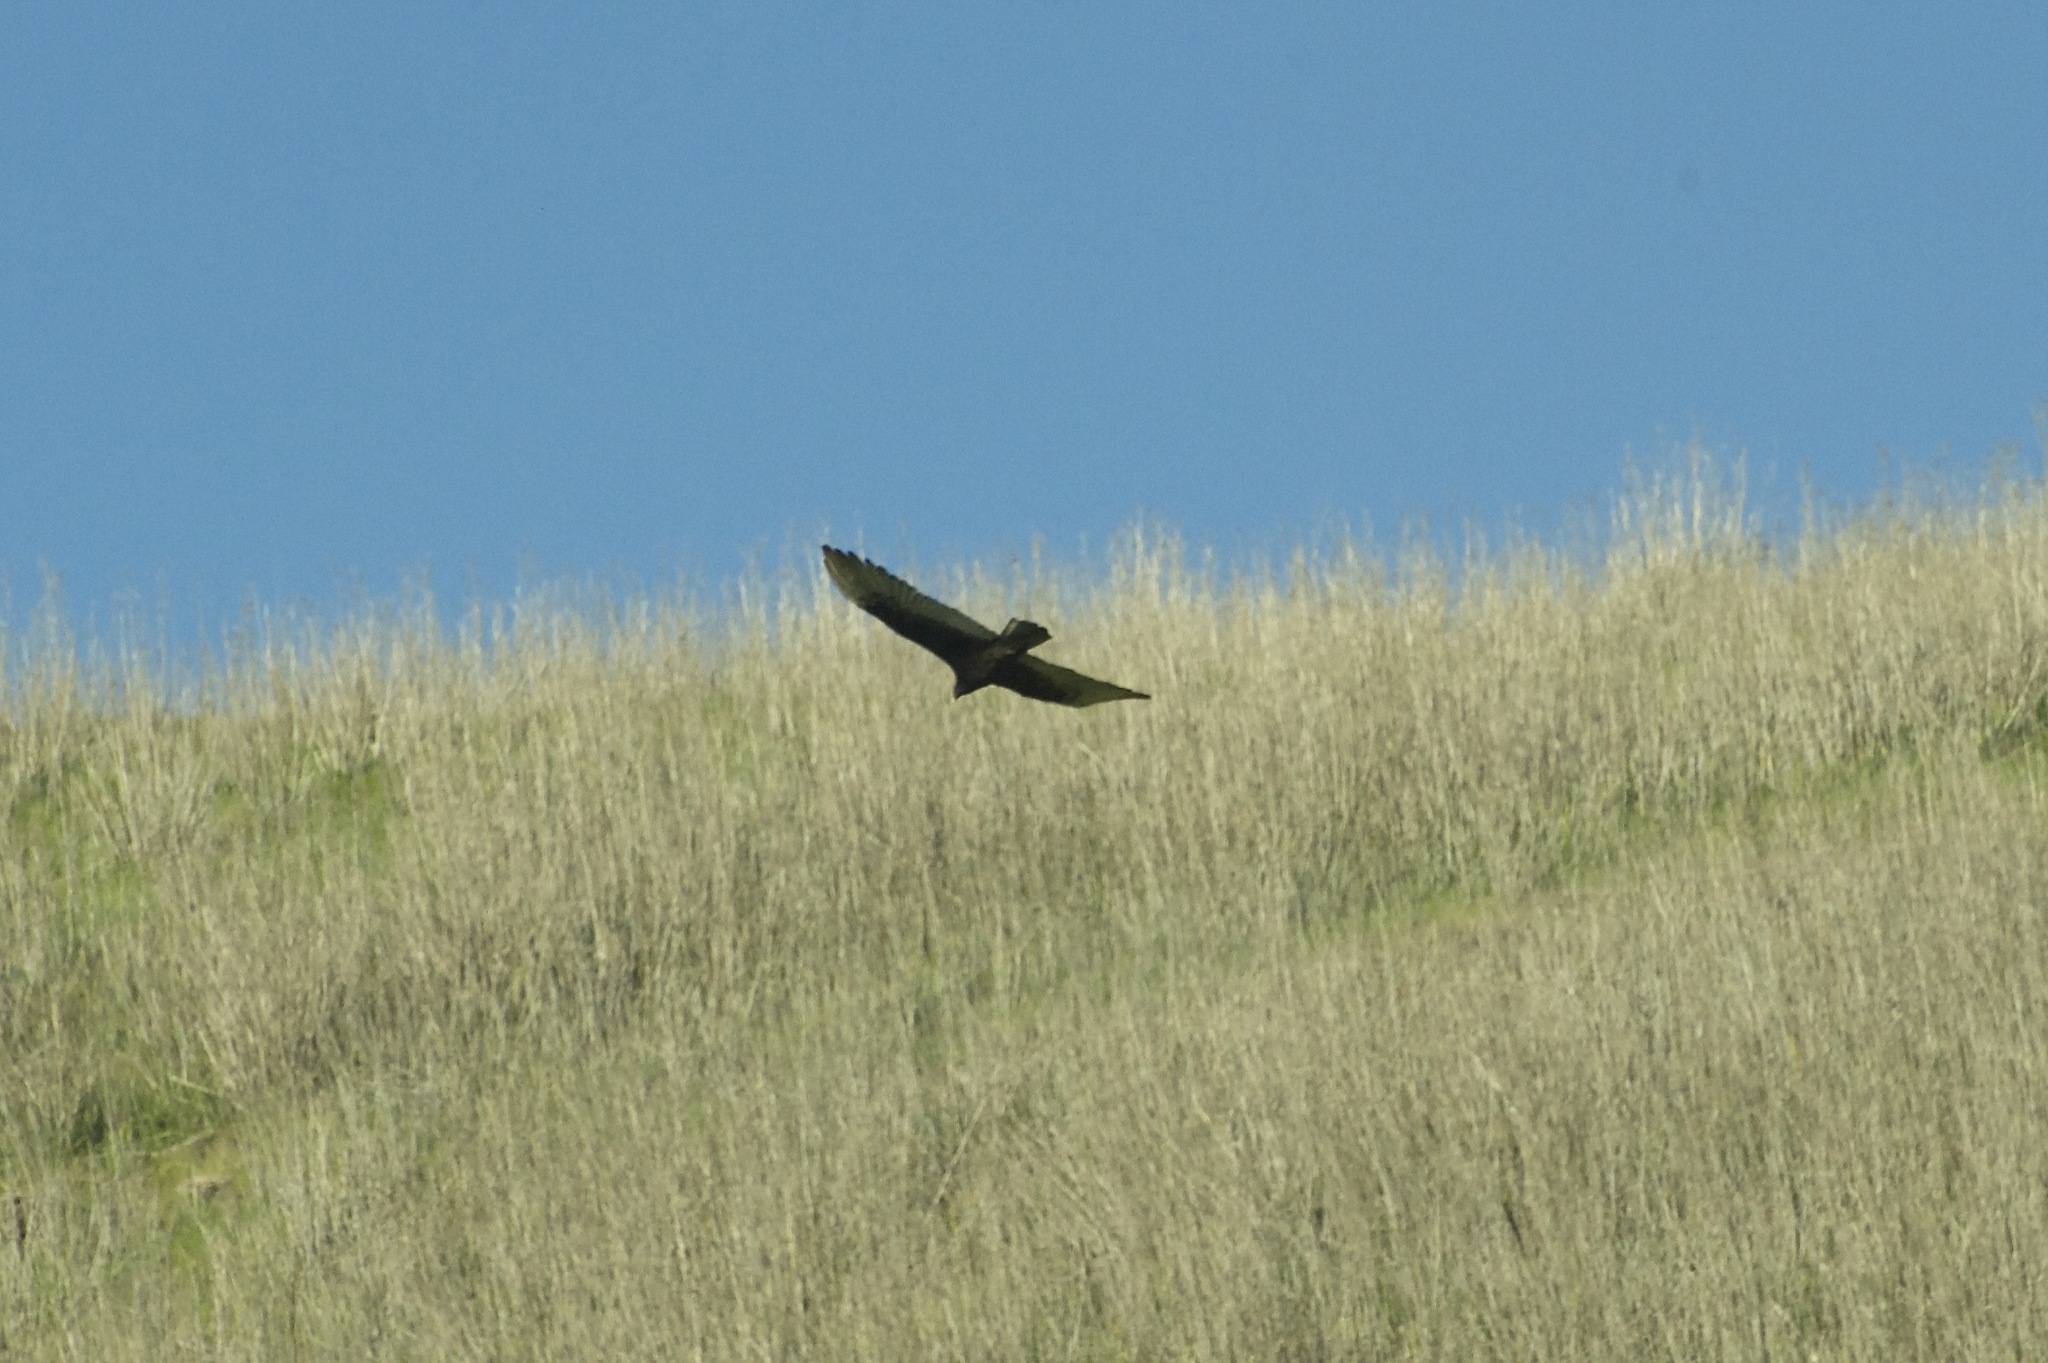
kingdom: Animalia
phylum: Chordata
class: Aves
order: Accipitriformes
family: Cathartidae
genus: Cathartes
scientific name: Cathartes aura
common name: Turkey vulture
